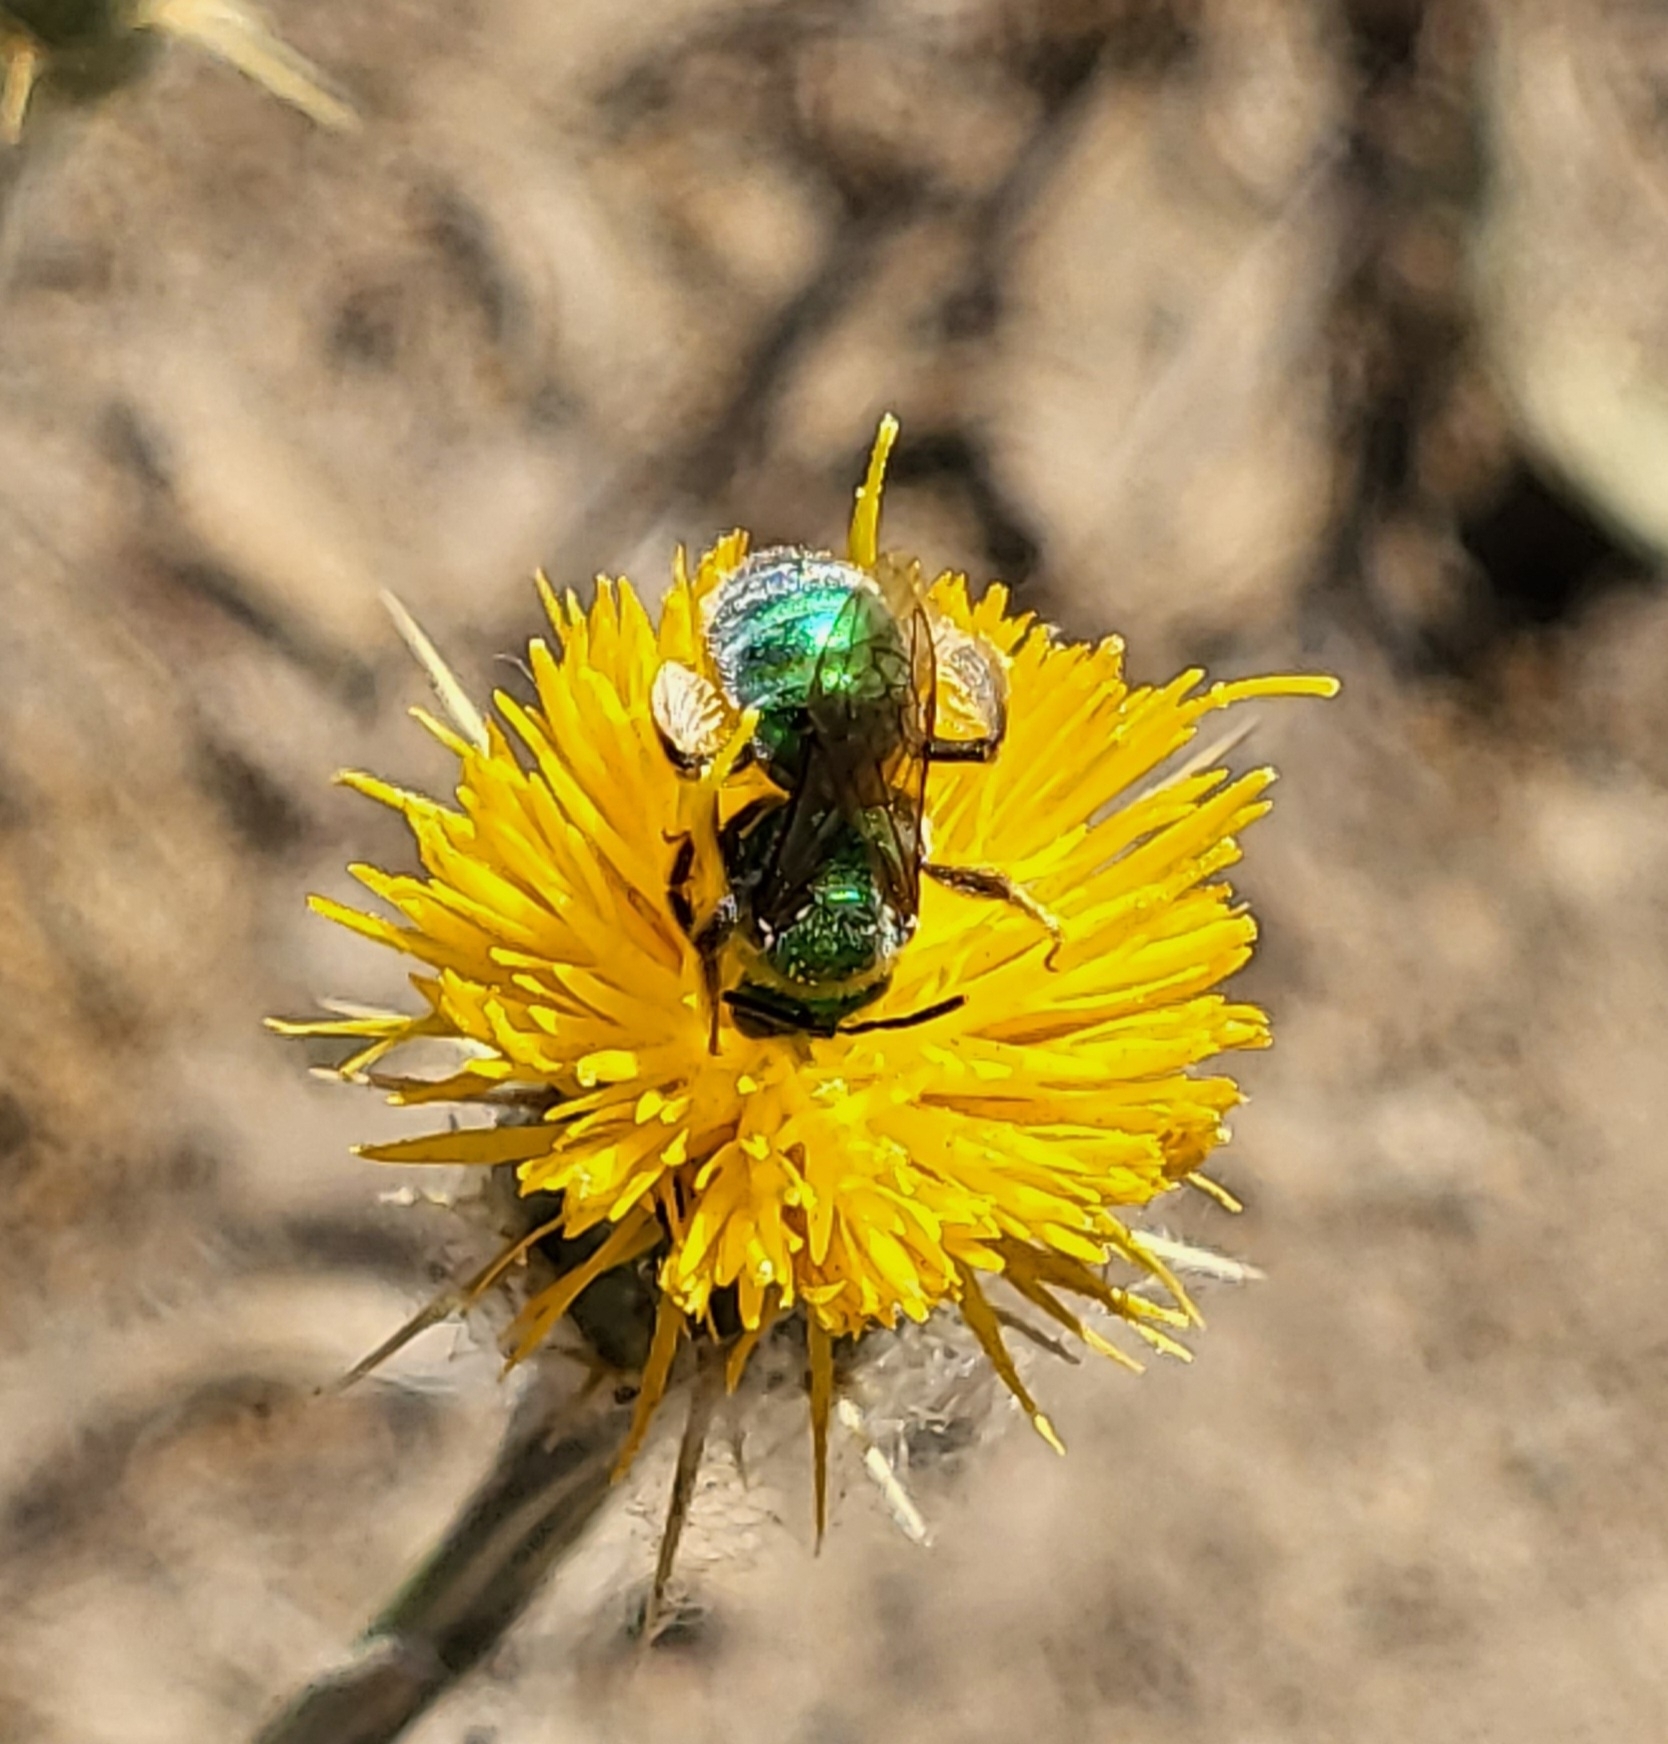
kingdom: Animalia
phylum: Arthropoda
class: Insecta
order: Hymenoptera
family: Halictidae
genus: Augochlorella
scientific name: Augochlorella pomoniella
